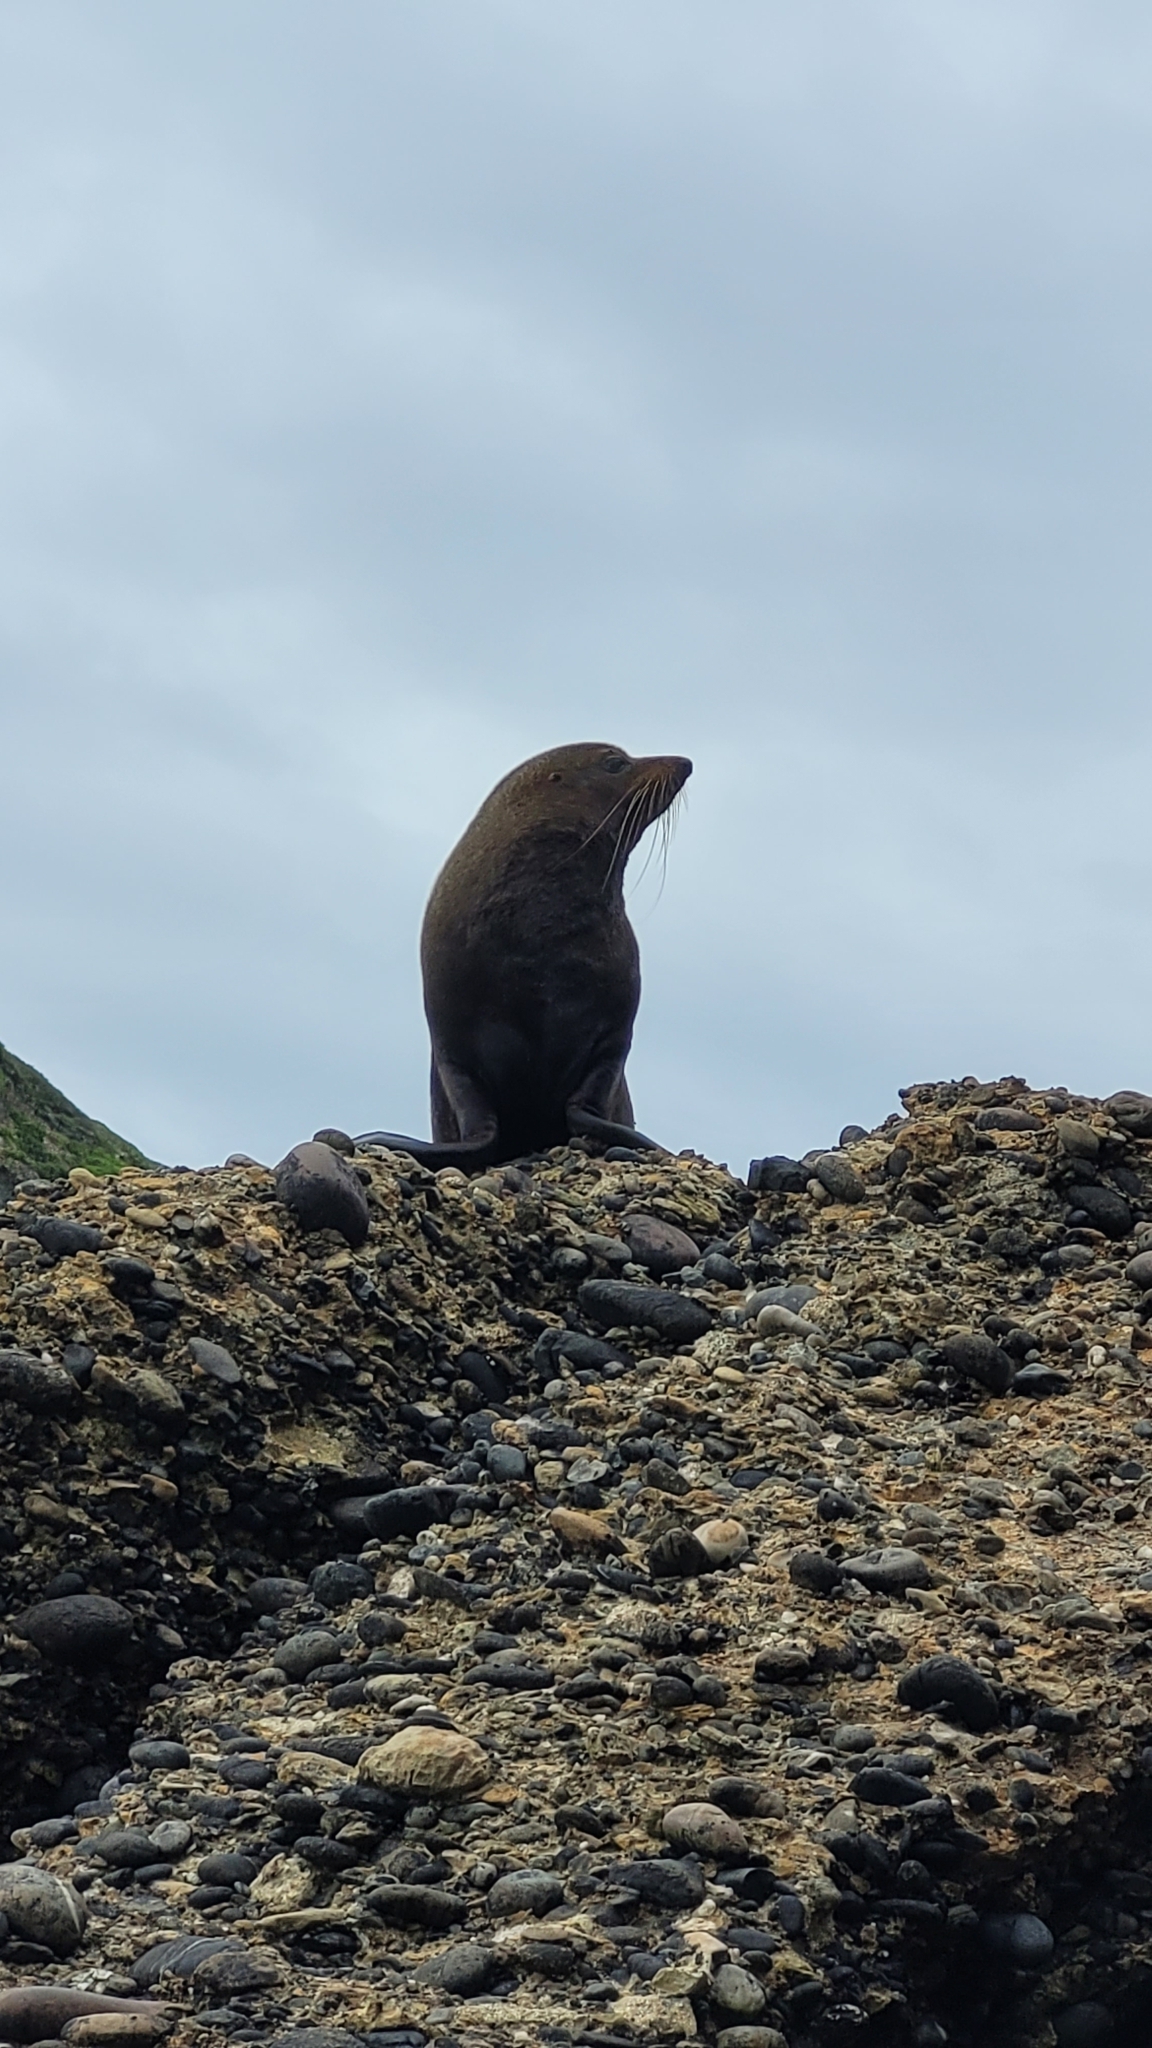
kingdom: Animalia
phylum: Chordata
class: Mammalia
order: Carnivora
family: Otariidae
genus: Arctocephalus
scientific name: Arctocephalus forsteri
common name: New zealand fur seal
